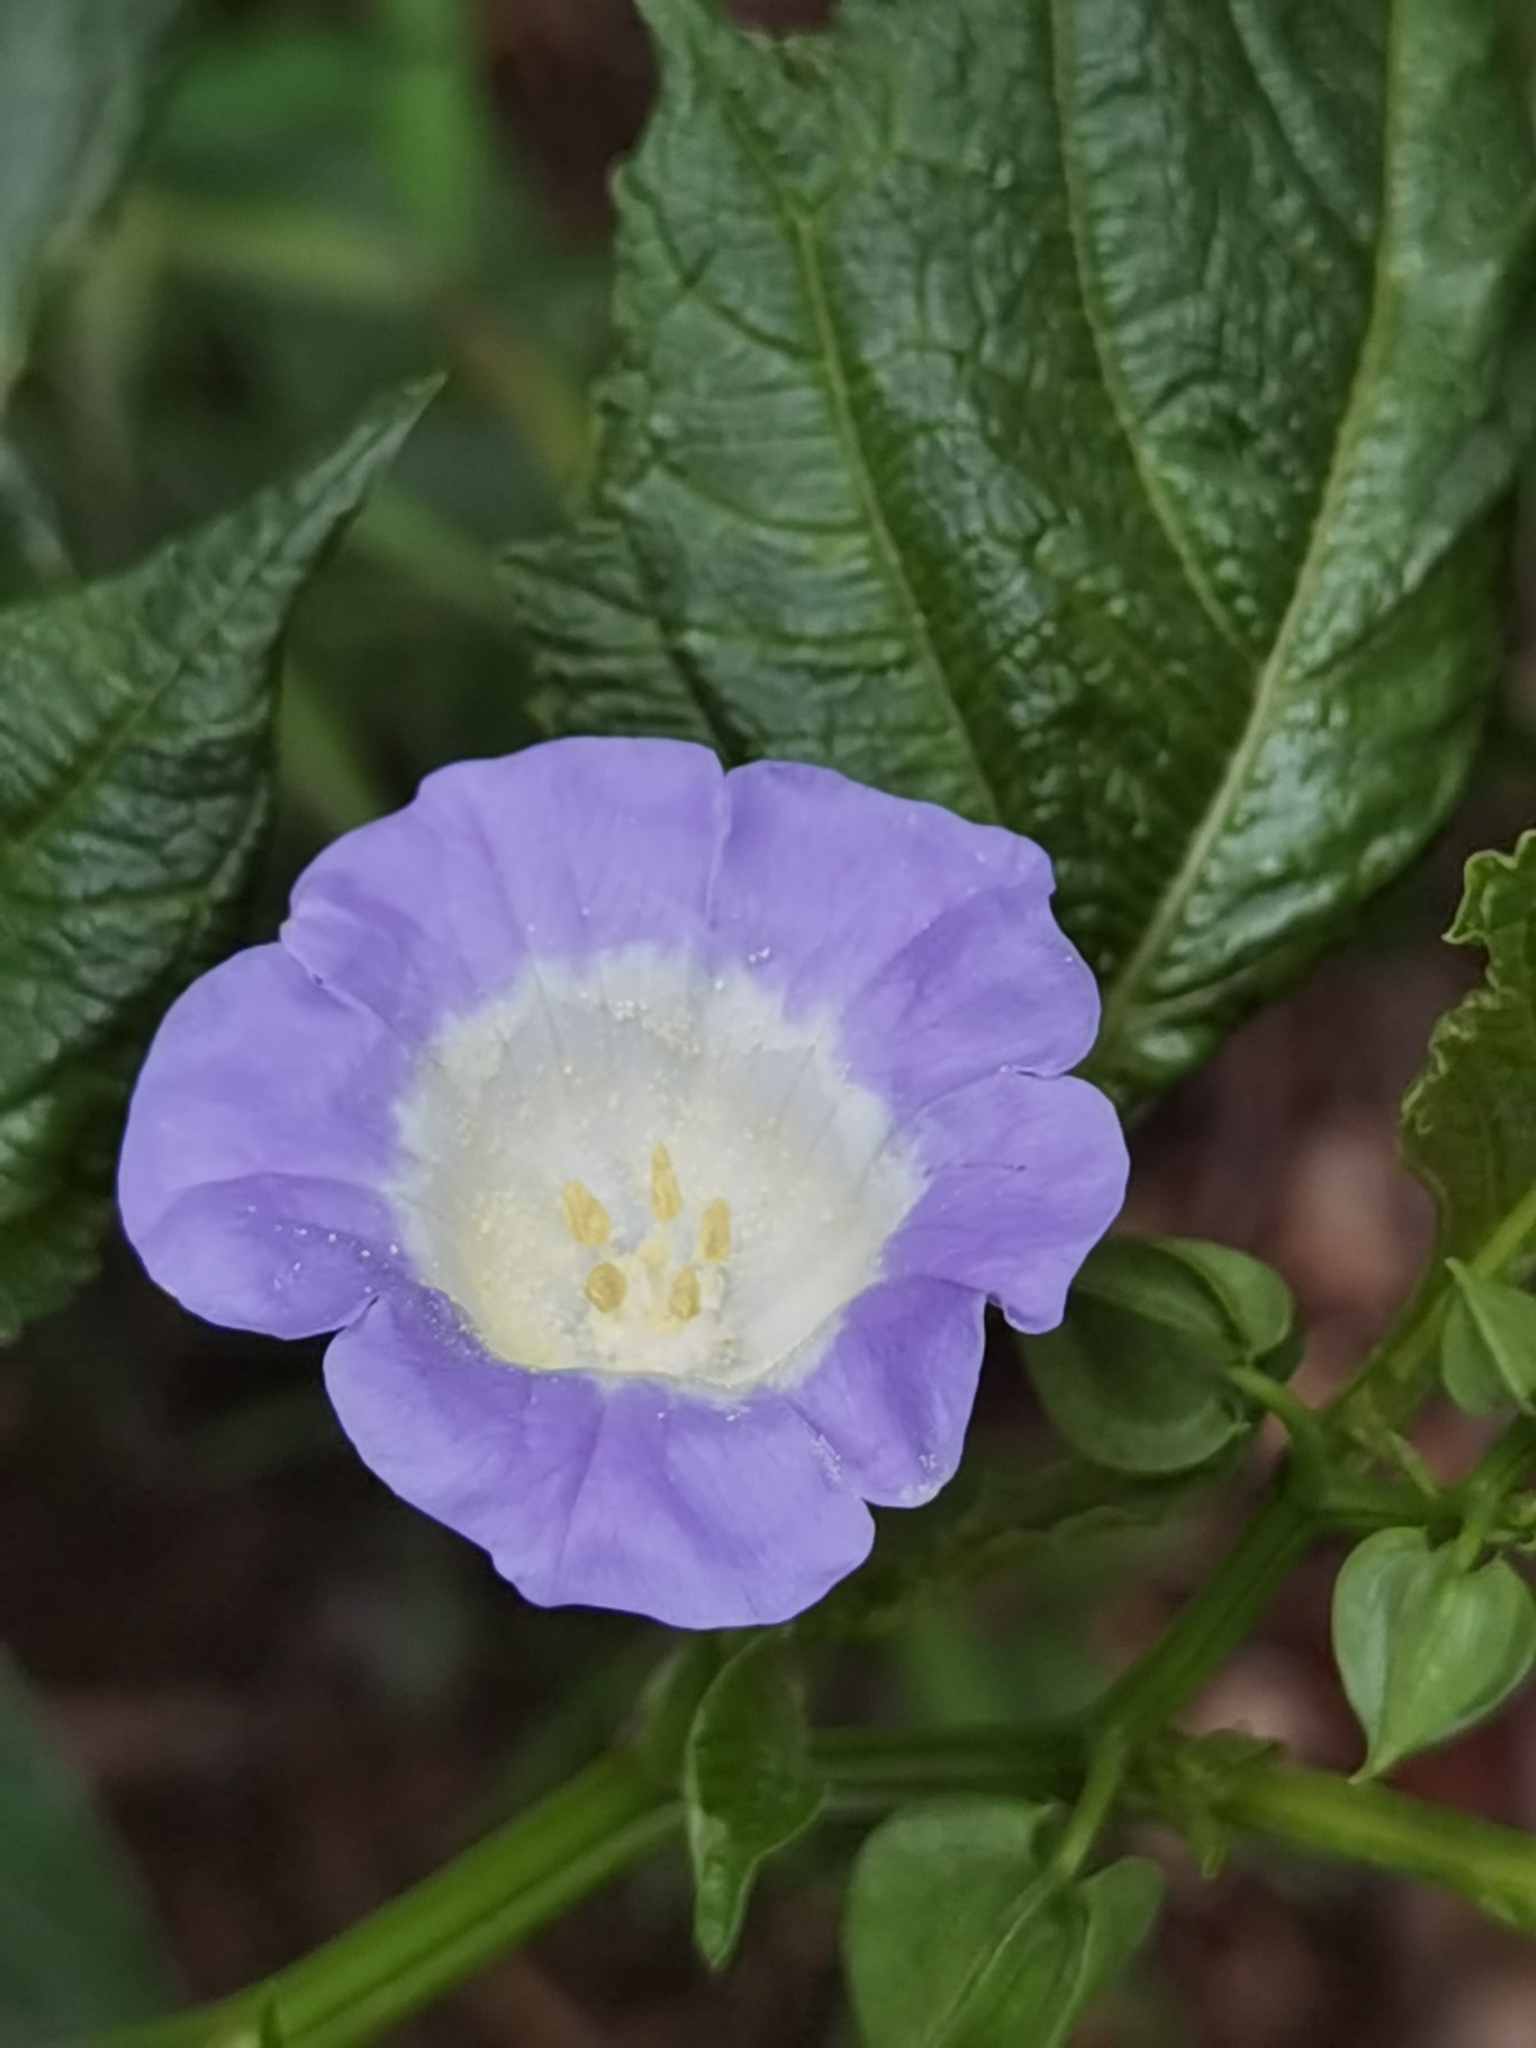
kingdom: Plantae
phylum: Tracheophyta
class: Magnoliopsida
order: Solanales
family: Solanaceae
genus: Nicandra
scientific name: Nicandra physalodes
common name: Apple-of-peru
